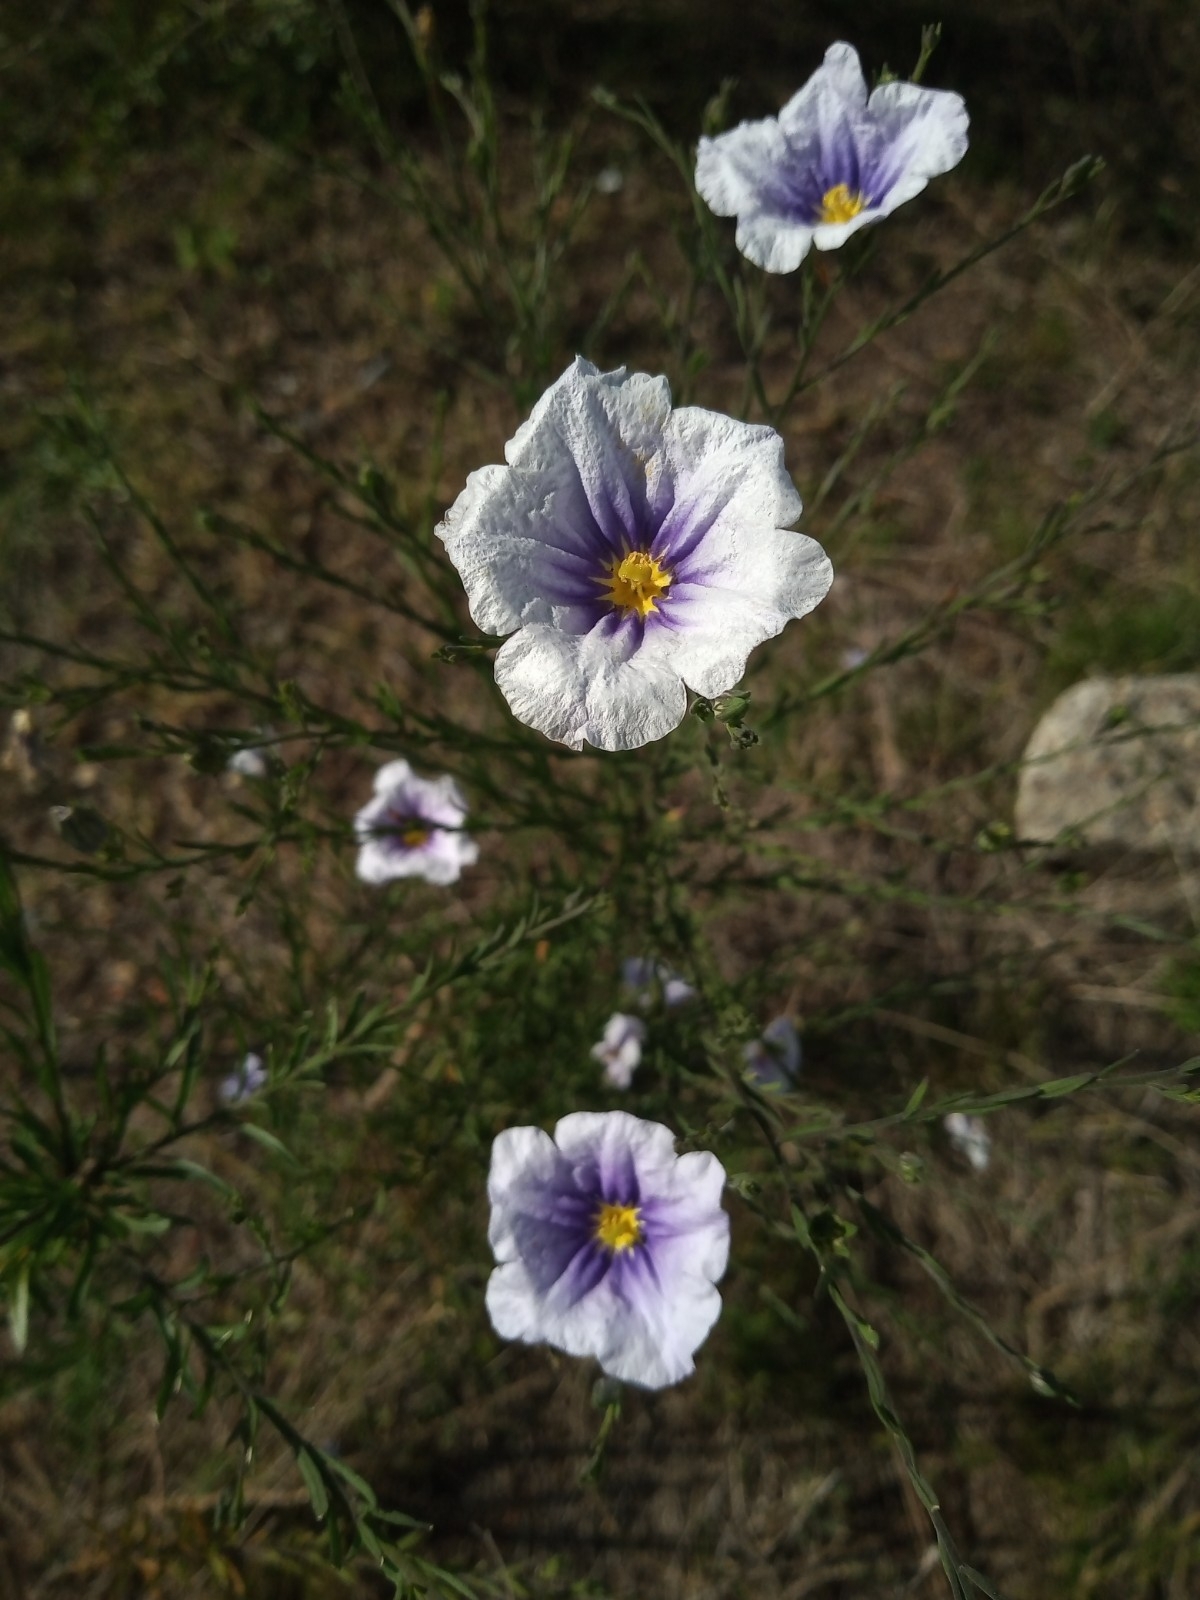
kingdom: Plantae
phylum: Tracheophyta
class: Magnoliopsida
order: Solanales
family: Solanaceae
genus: Nierembergia
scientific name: Nierembergia linariifolia
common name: Dwarf cupflower
